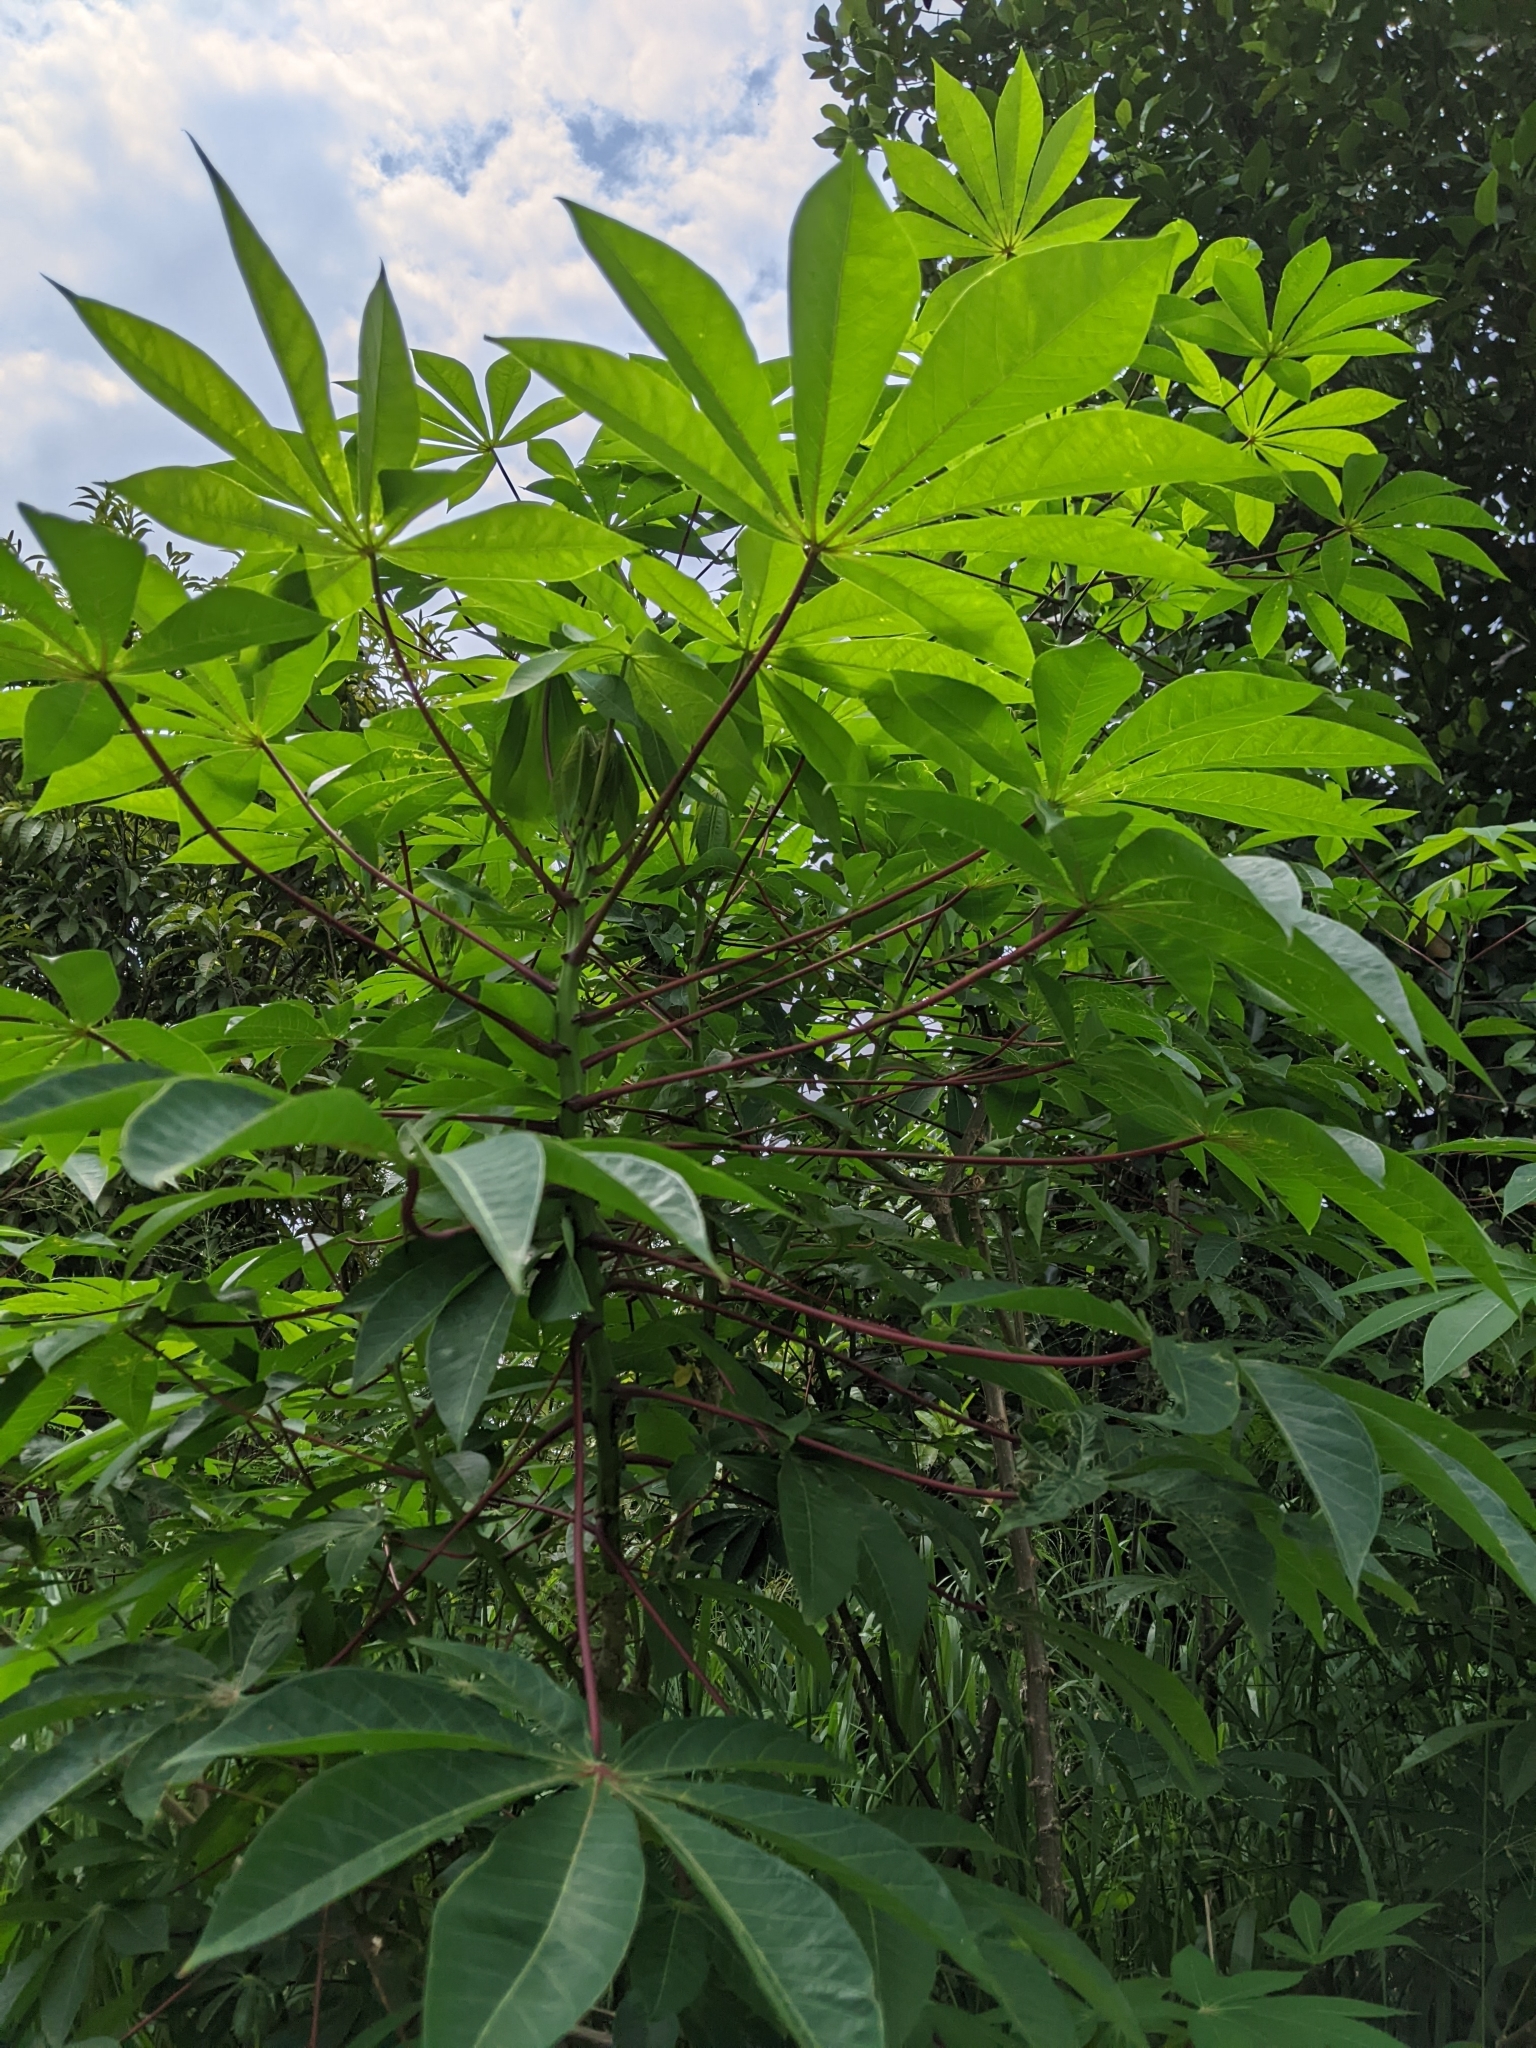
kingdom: Plantae
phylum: Tracheophyta
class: Magnoliopsida
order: Malpighiales
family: Euphorbiaceae
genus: Manihot
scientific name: Manihot esculenta
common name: Cassava
